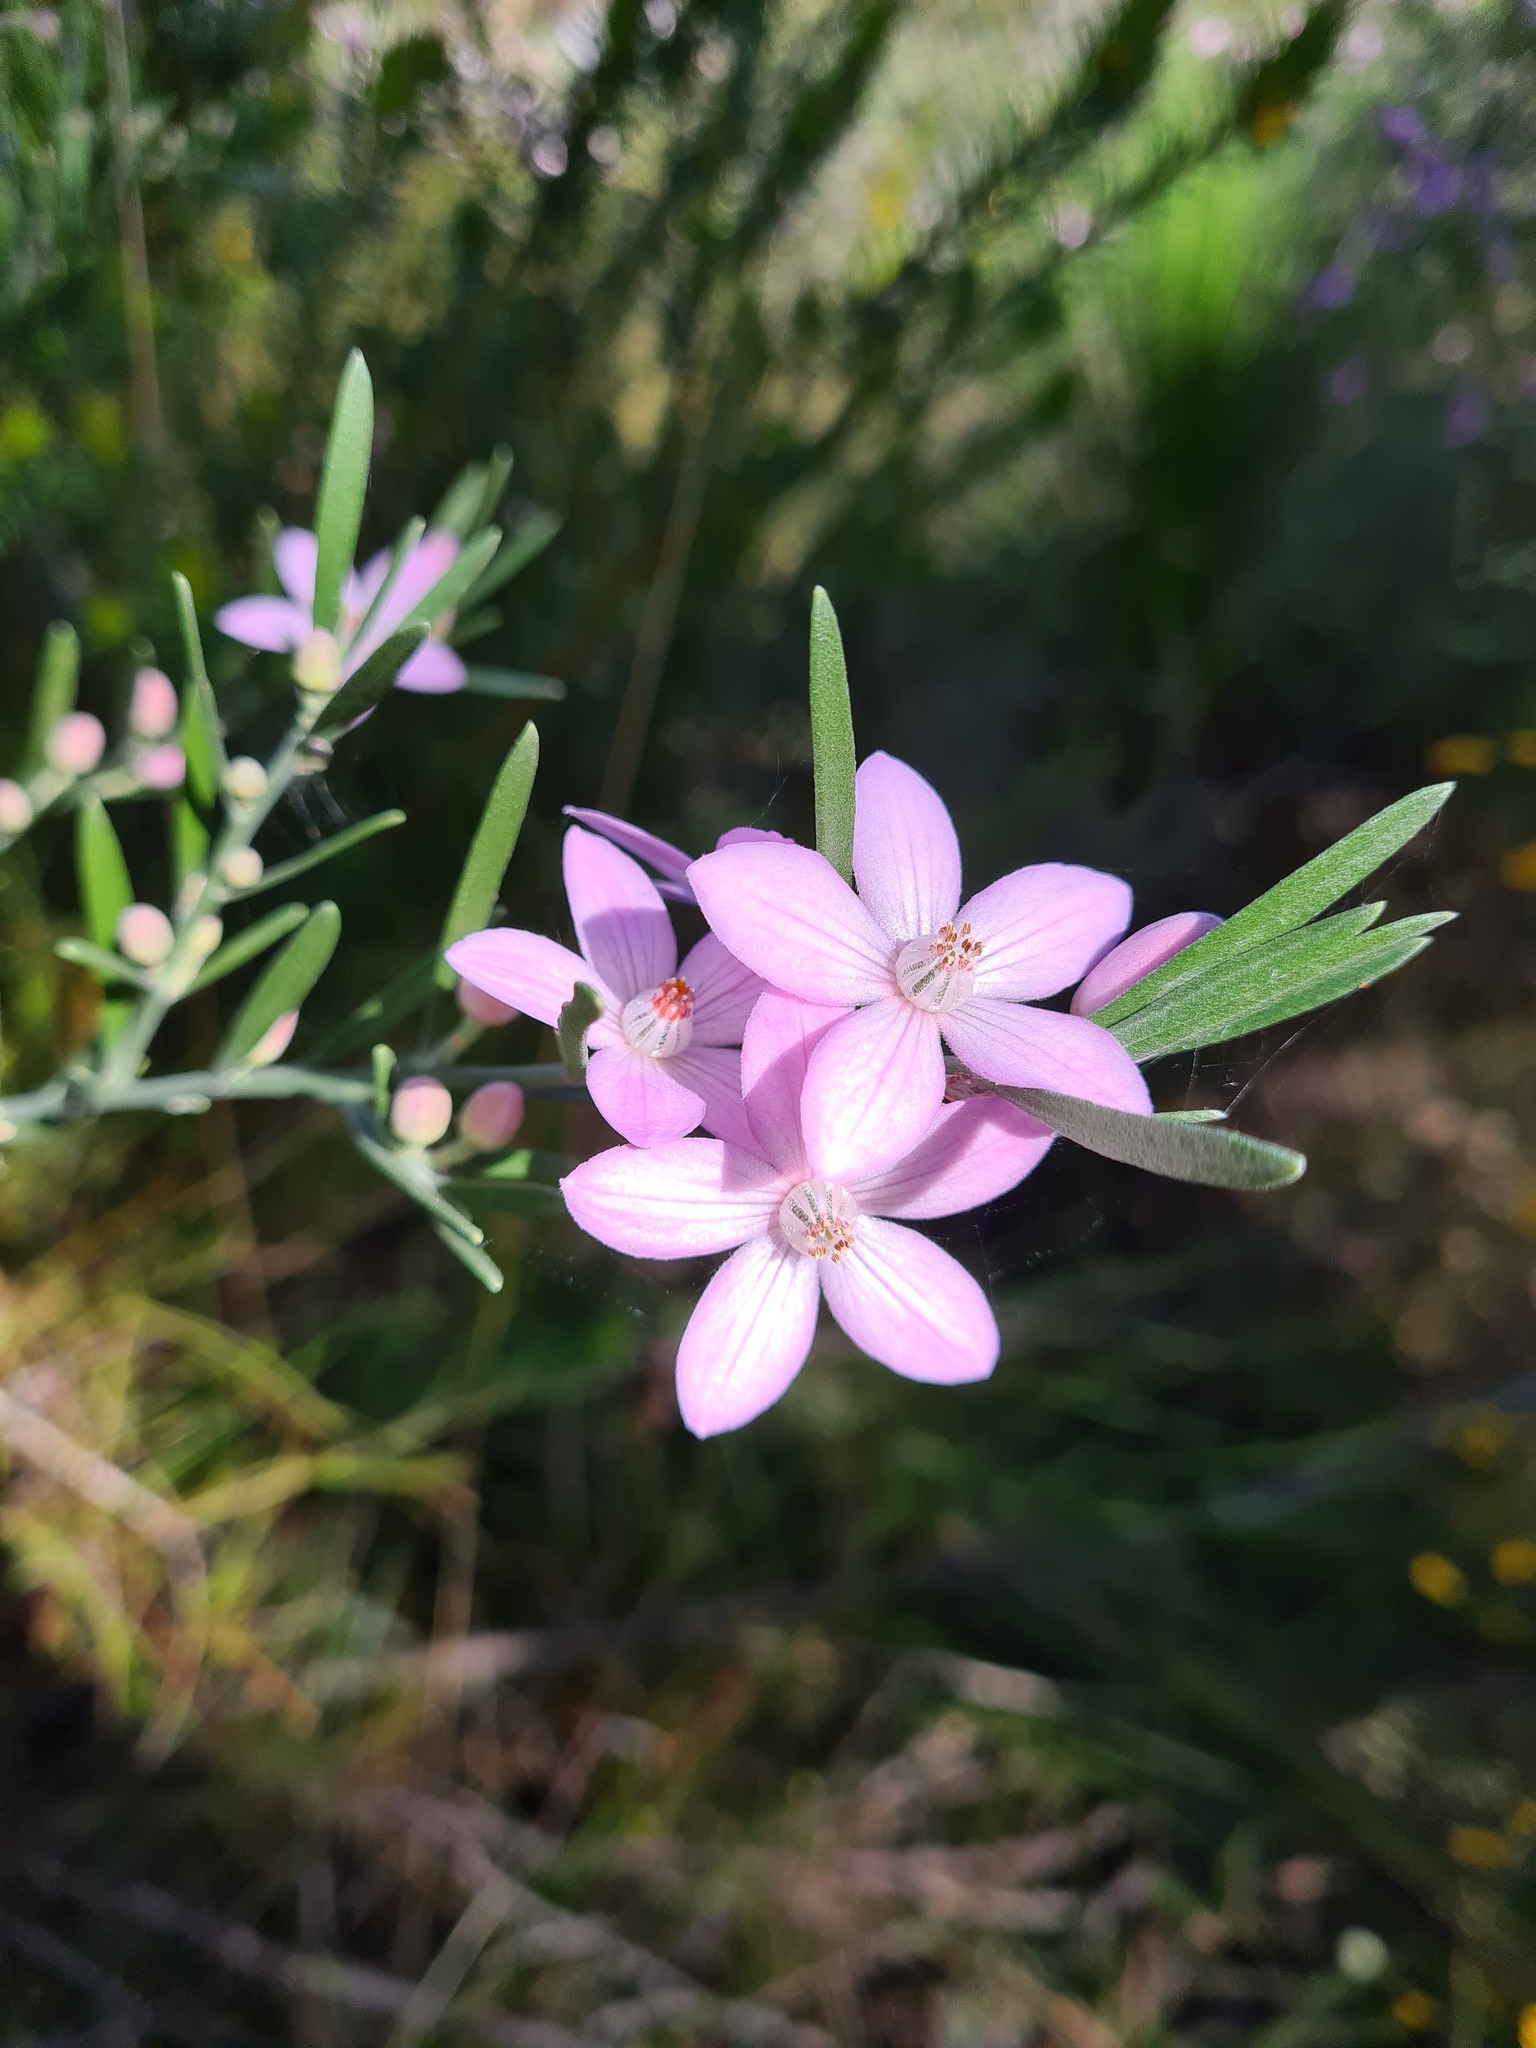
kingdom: Plantae
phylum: Tracheophyta
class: Magnoliopsida
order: Sapindales
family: Rutaceae
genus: Eriostemon
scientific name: Eriostemon australasius
